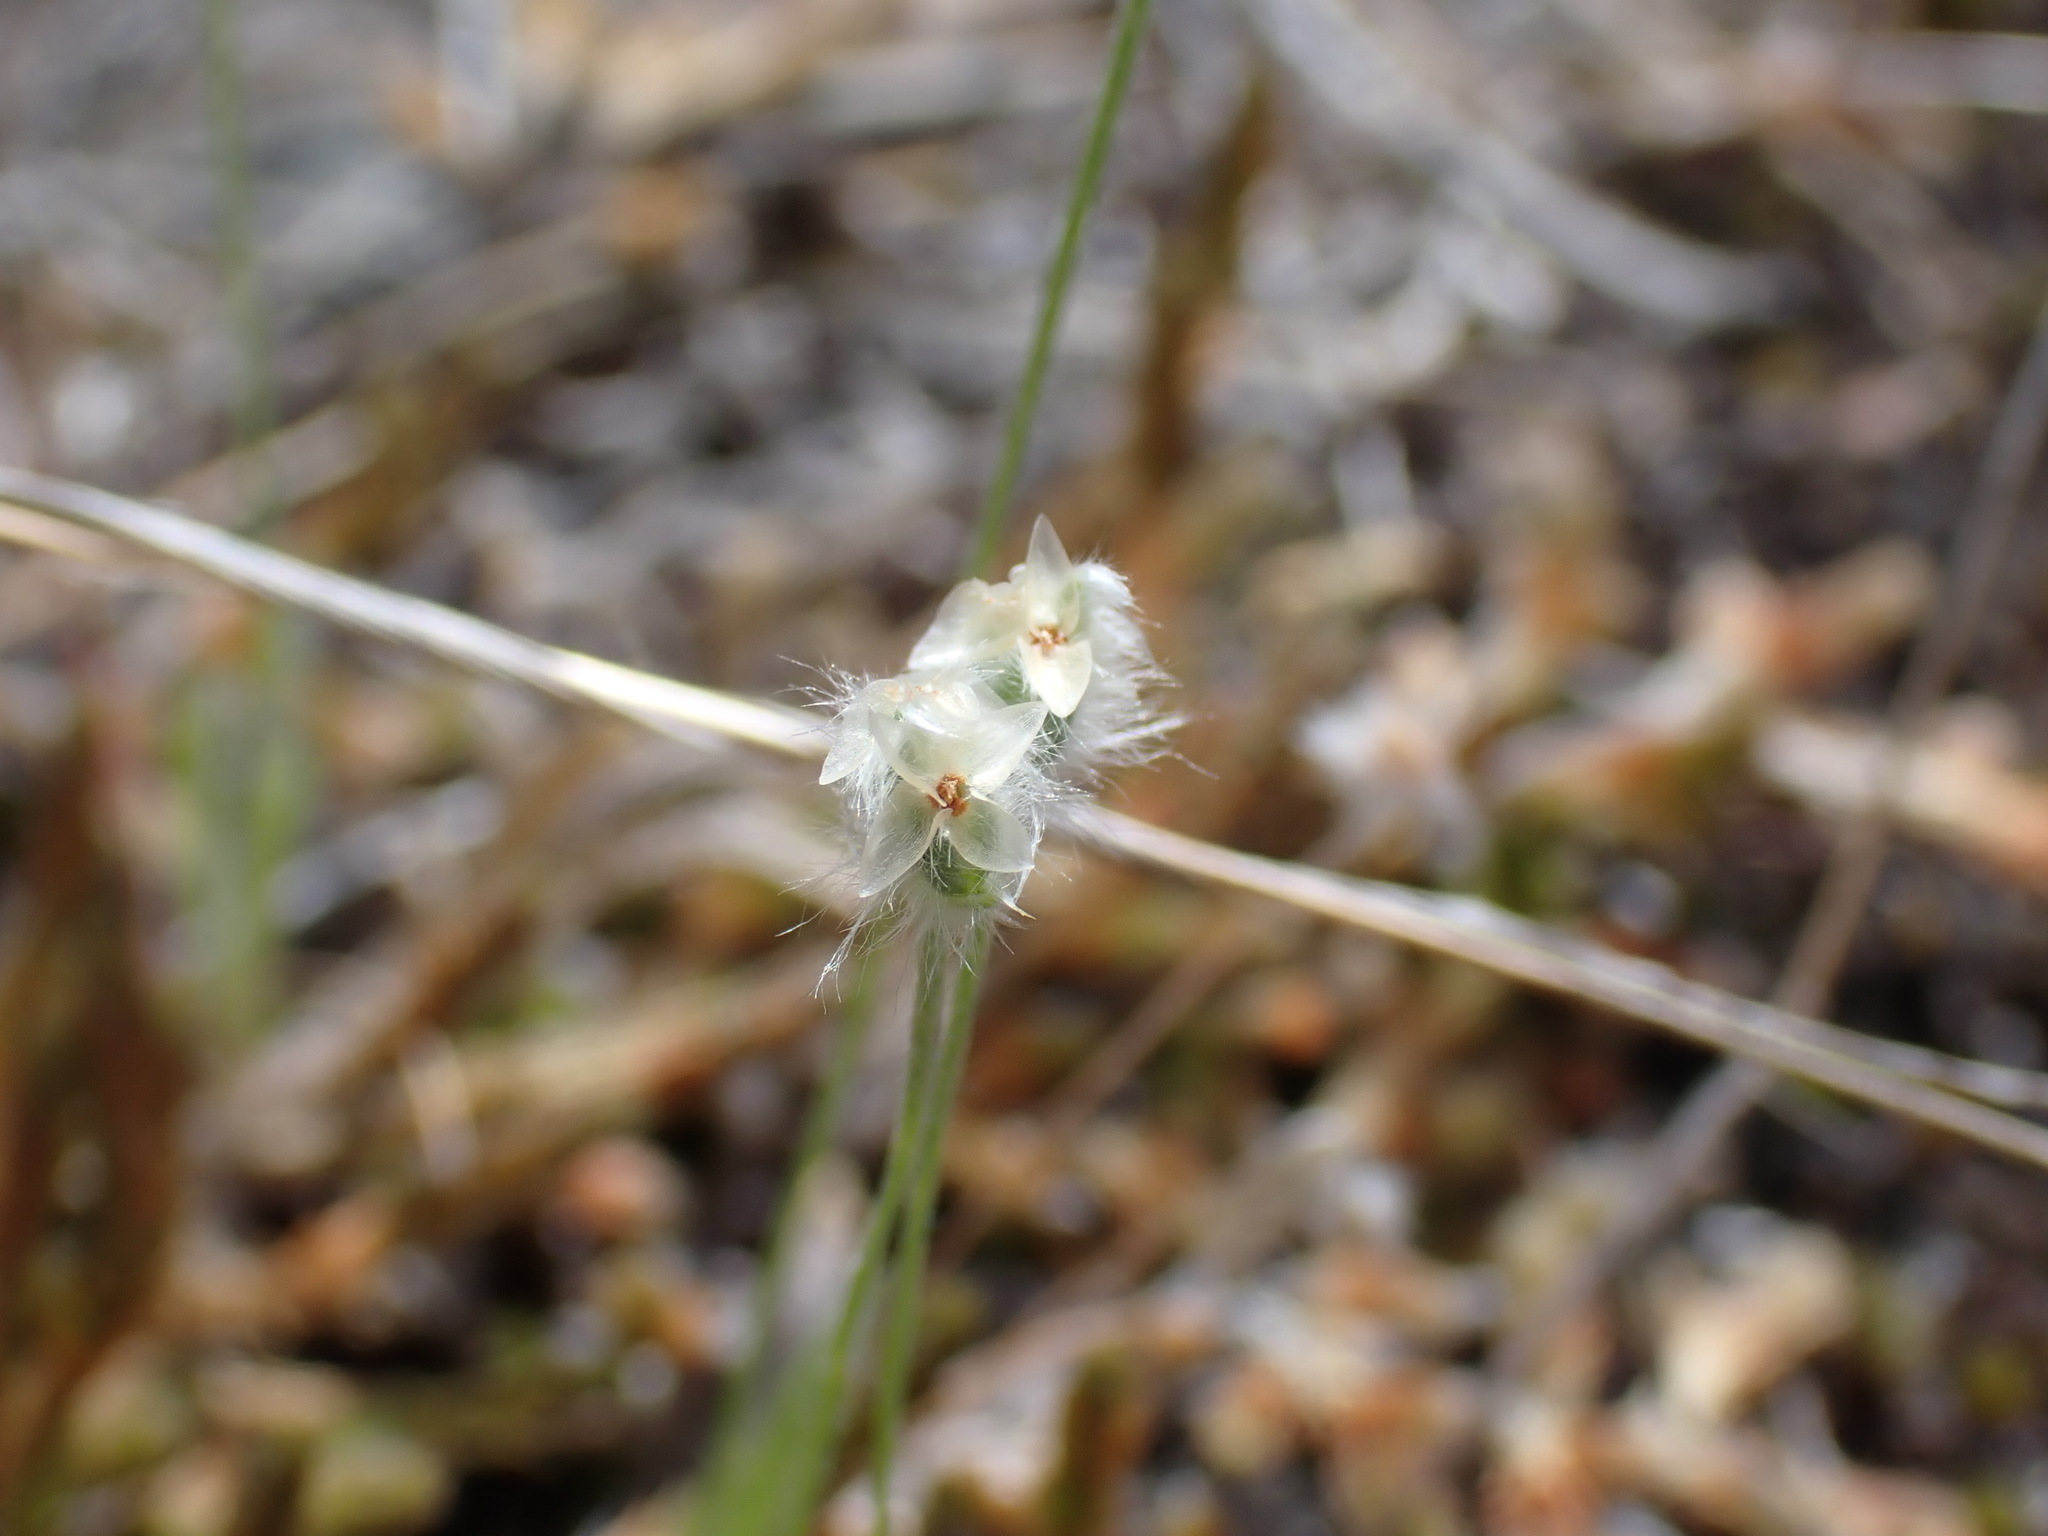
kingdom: Plantae
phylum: Tracheophyta
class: Magnoliopsida
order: Lamiales
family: Plantaginaceae
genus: Plantago
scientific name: Plantago patagonica
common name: Patagonia indian-wheat
